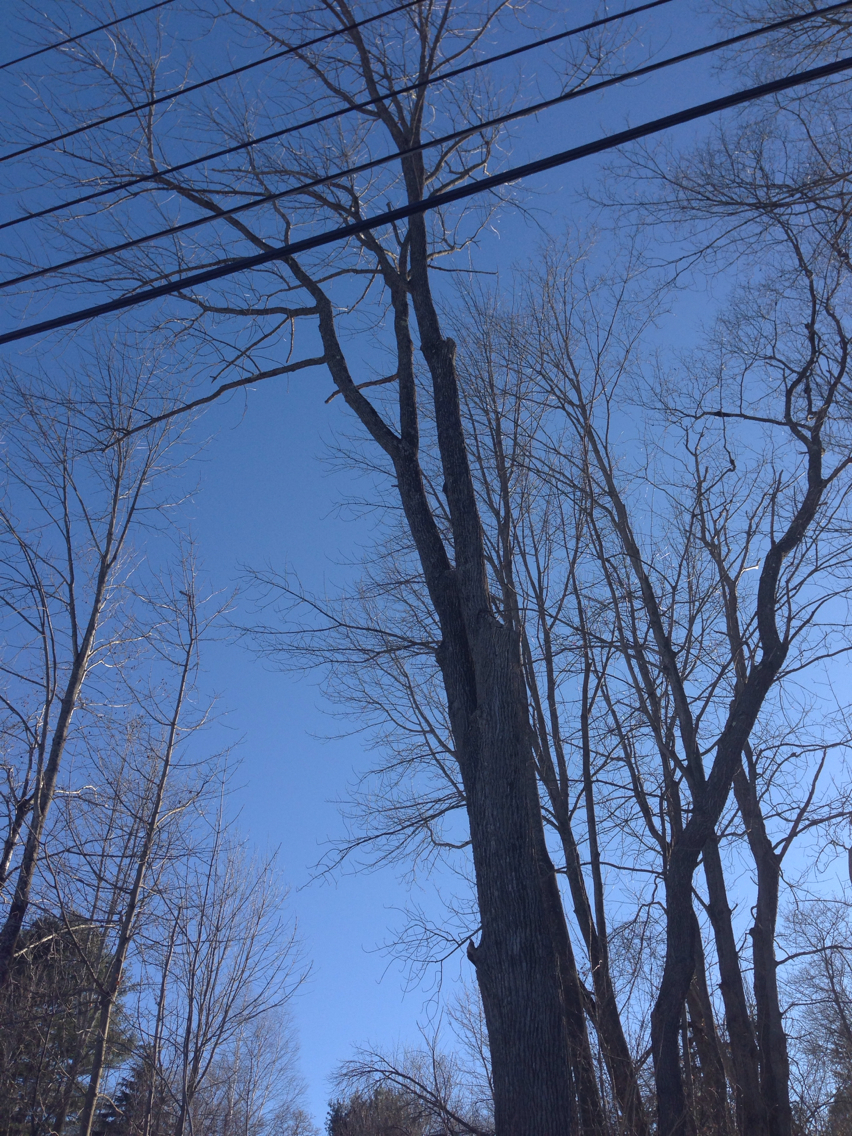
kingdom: Plantae
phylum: Tracheophyta
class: Magnoliopsida
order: Lamiales
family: Oleaceae
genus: Fraxinus
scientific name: Fraxinus americana
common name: White ash
